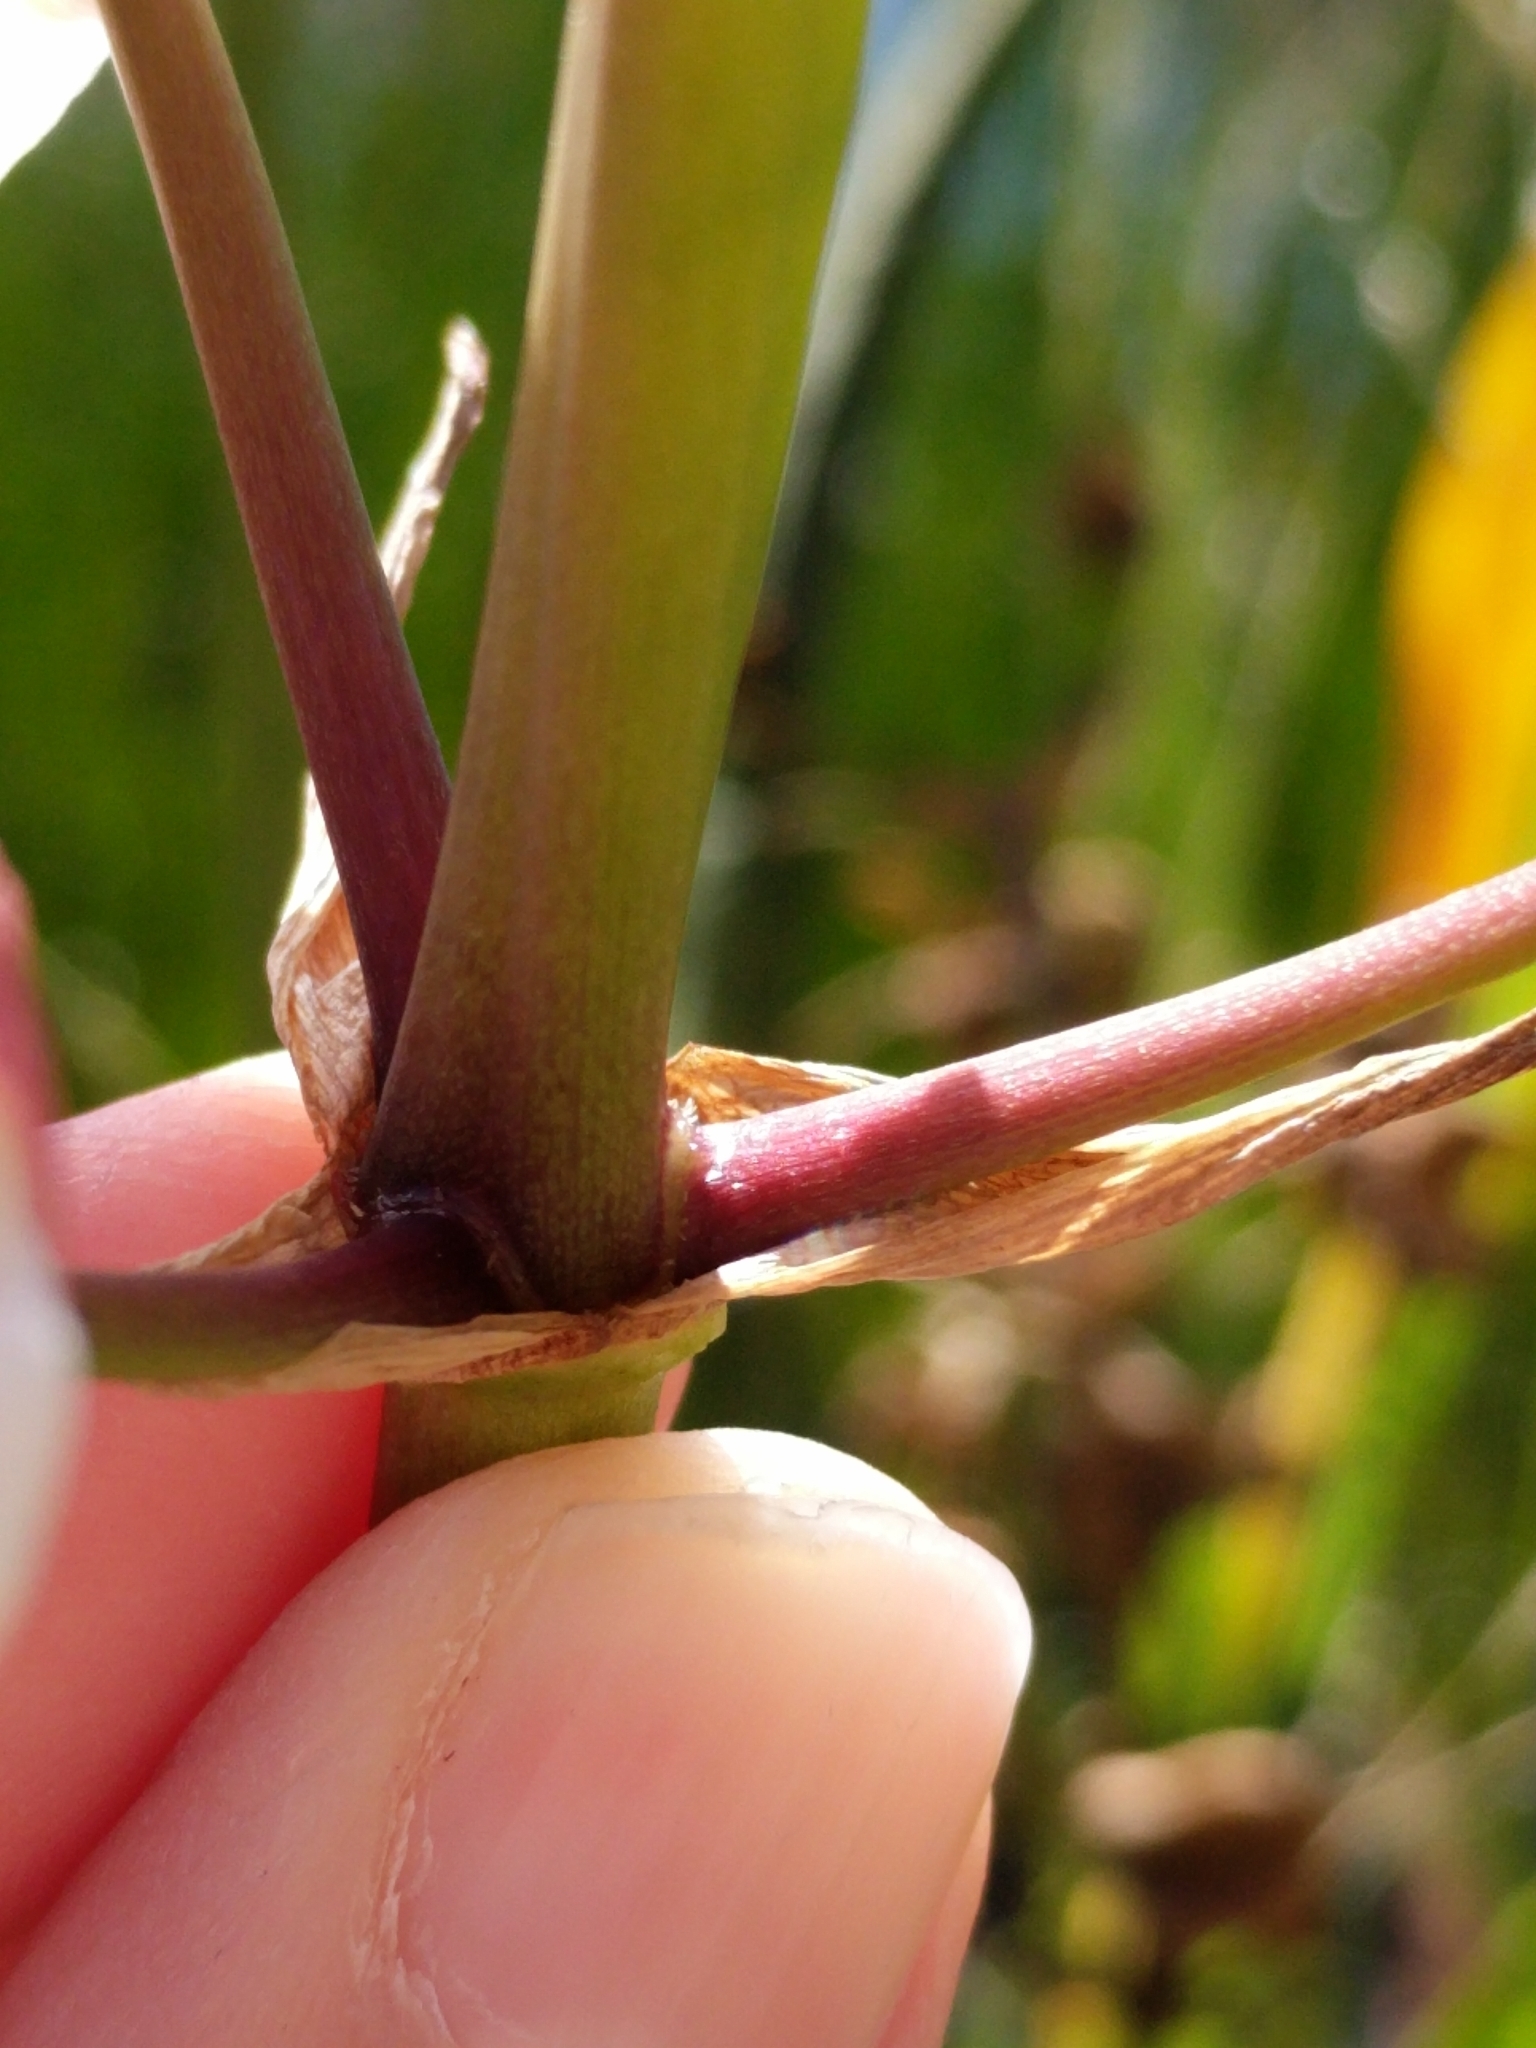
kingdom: Plantae
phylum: Tracheophyta
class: Liliopsida
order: Alismatales
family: Alismataceae
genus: Sagittaria
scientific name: Sagittaria lancifolia
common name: Lance-leaf arrowhead
